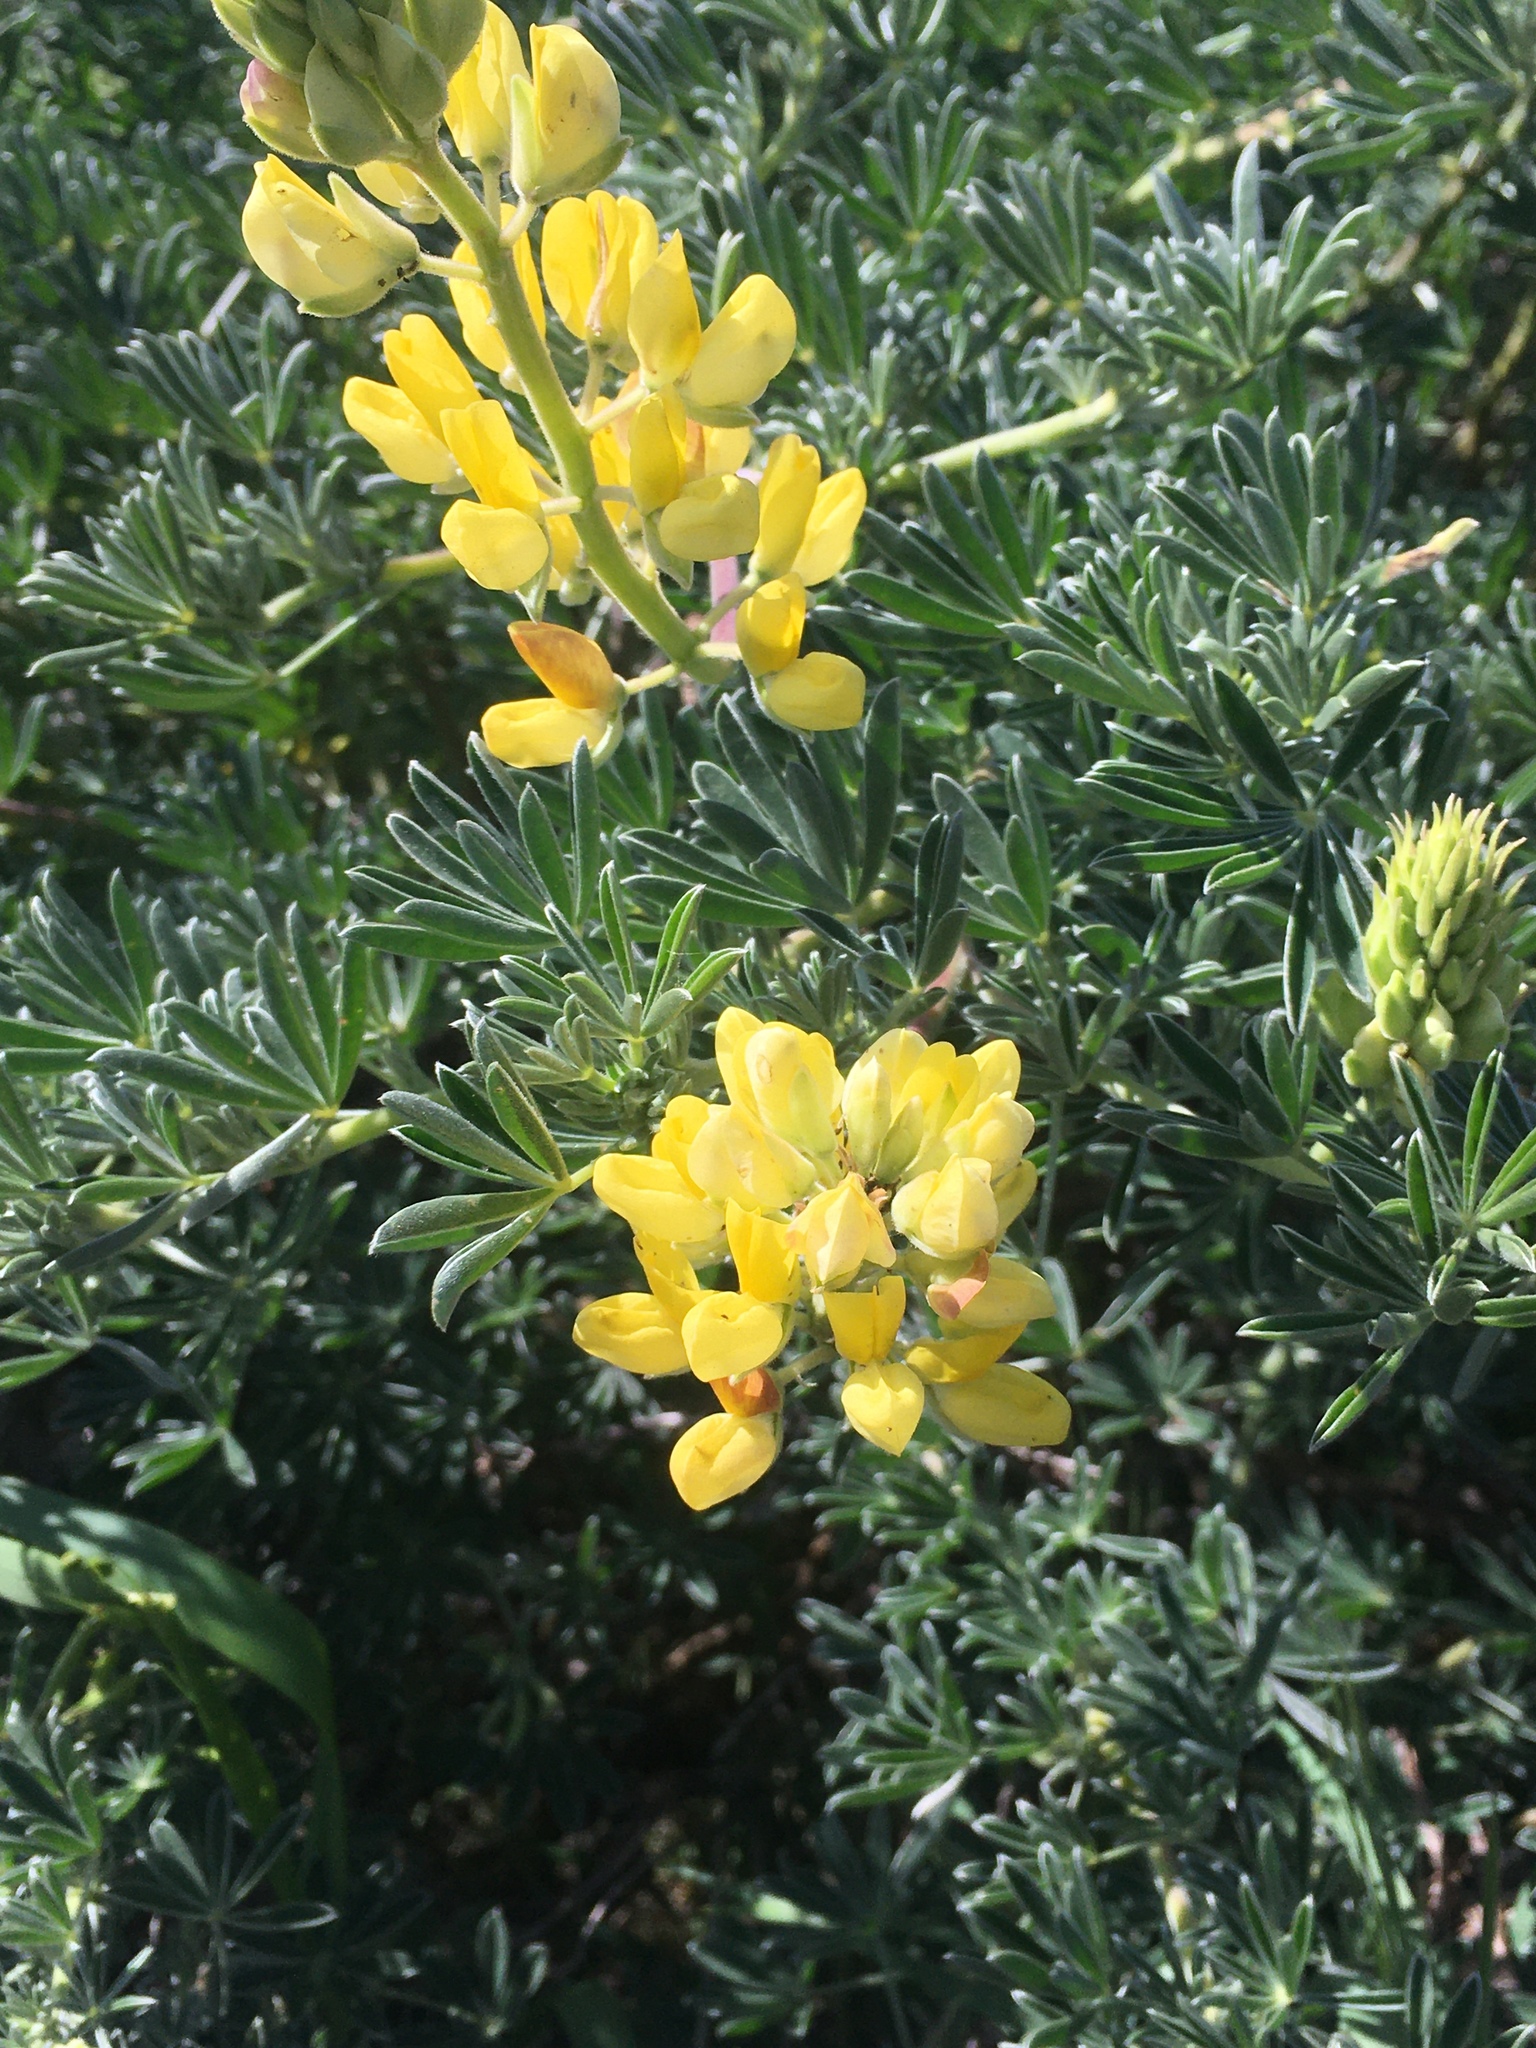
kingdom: Plantae
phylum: Tracheophyta
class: Magnoliopsida
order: Fabales
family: Fabaceae
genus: Lupinus
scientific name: Lupinus arboreus
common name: Yellow bush lupine
